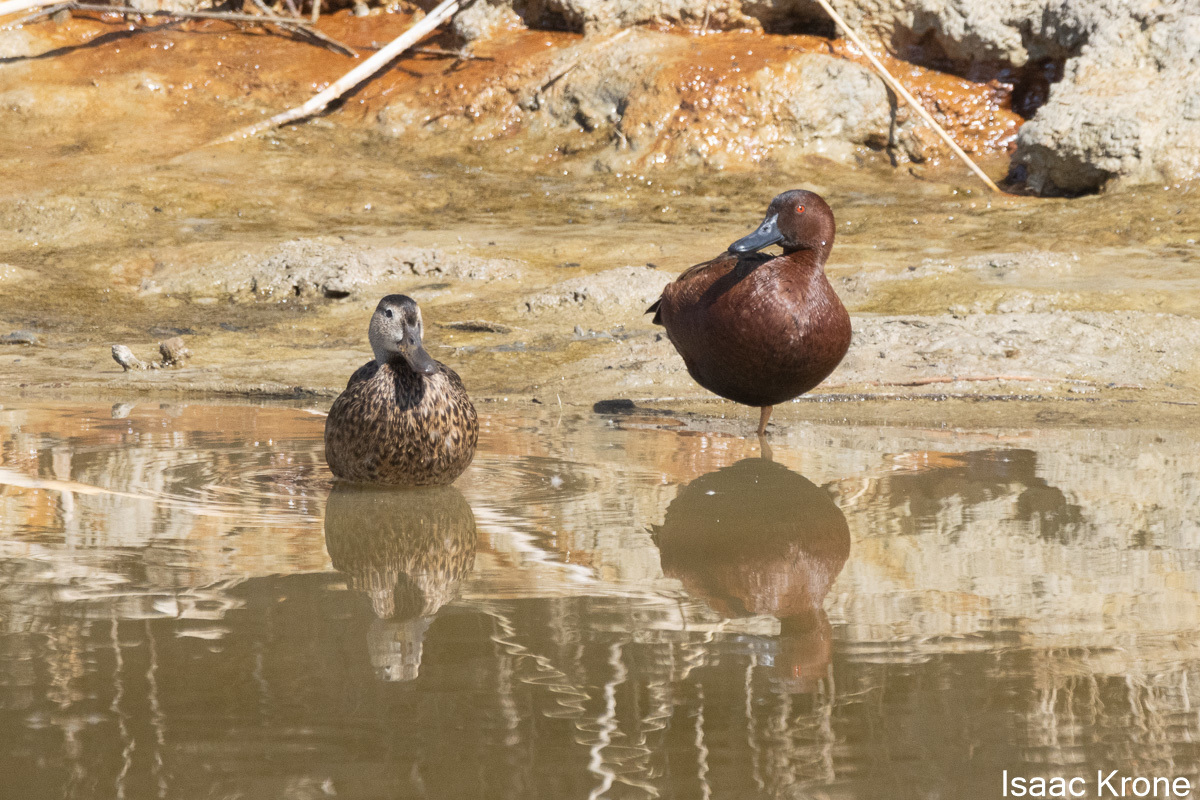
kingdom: Animalia
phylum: Chordata
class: Aves
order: Anseriformes
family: Anatidae
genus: Spatula
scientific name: Spatula cyanoptera
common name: Cinnamon teal
